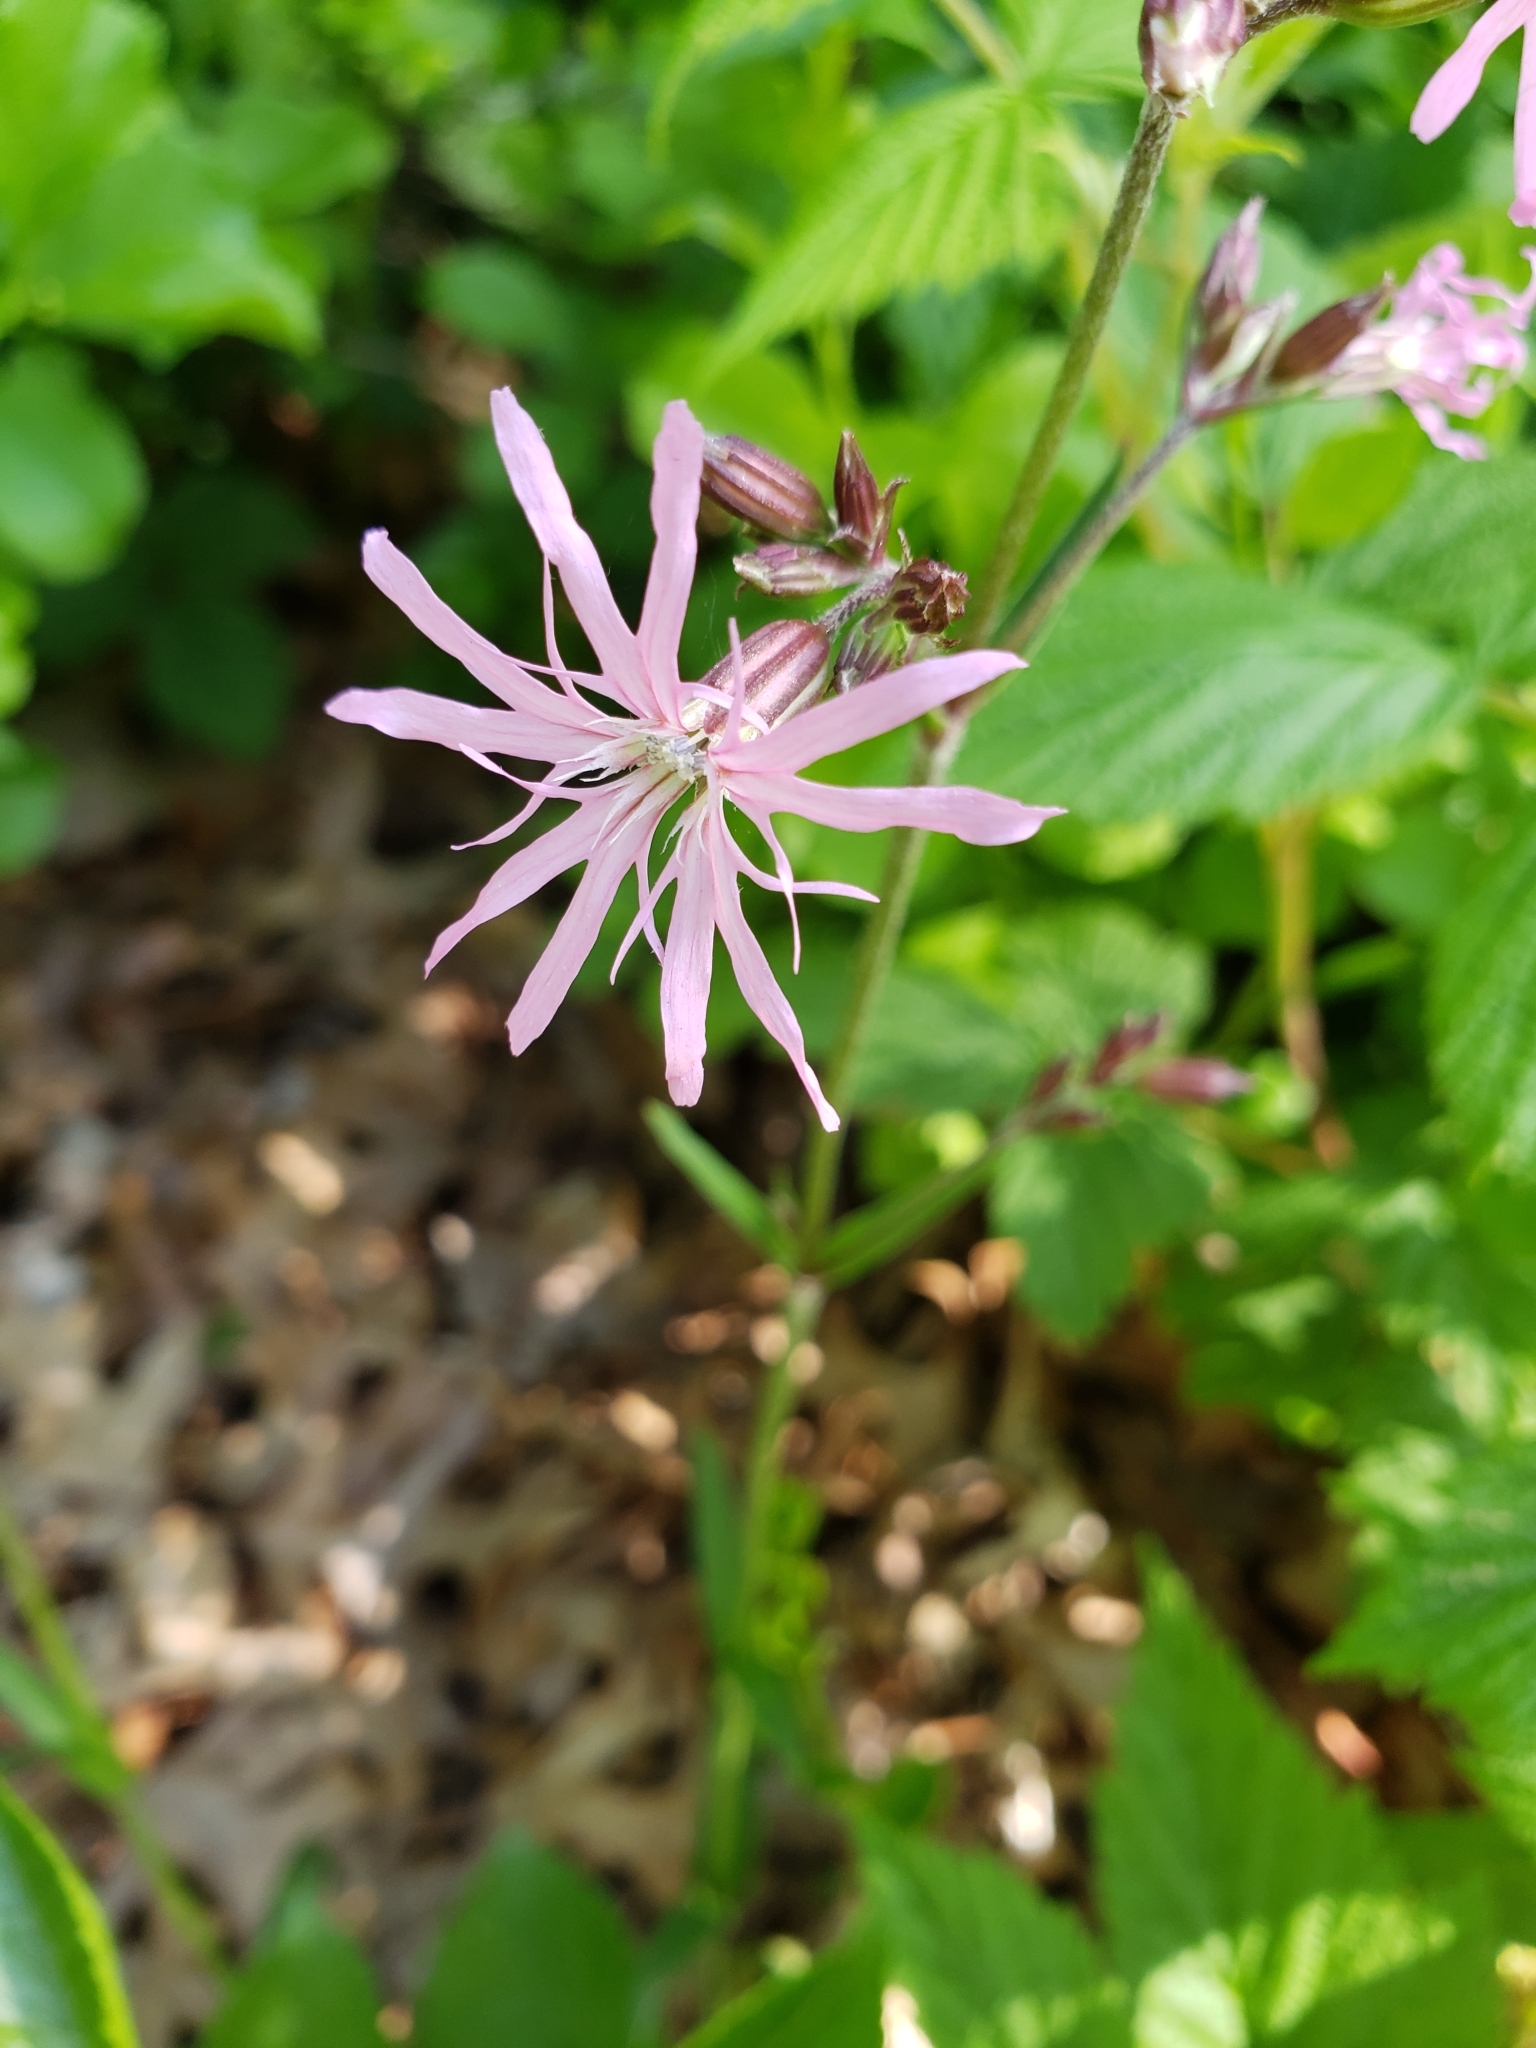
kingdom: Plantae
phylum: Tracheophyta
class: Magnoliopsida
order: Caryophyllales
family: Caryophyllaceae
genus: Silene
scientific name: Silene flos-cuculi
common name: Ragged-robin
